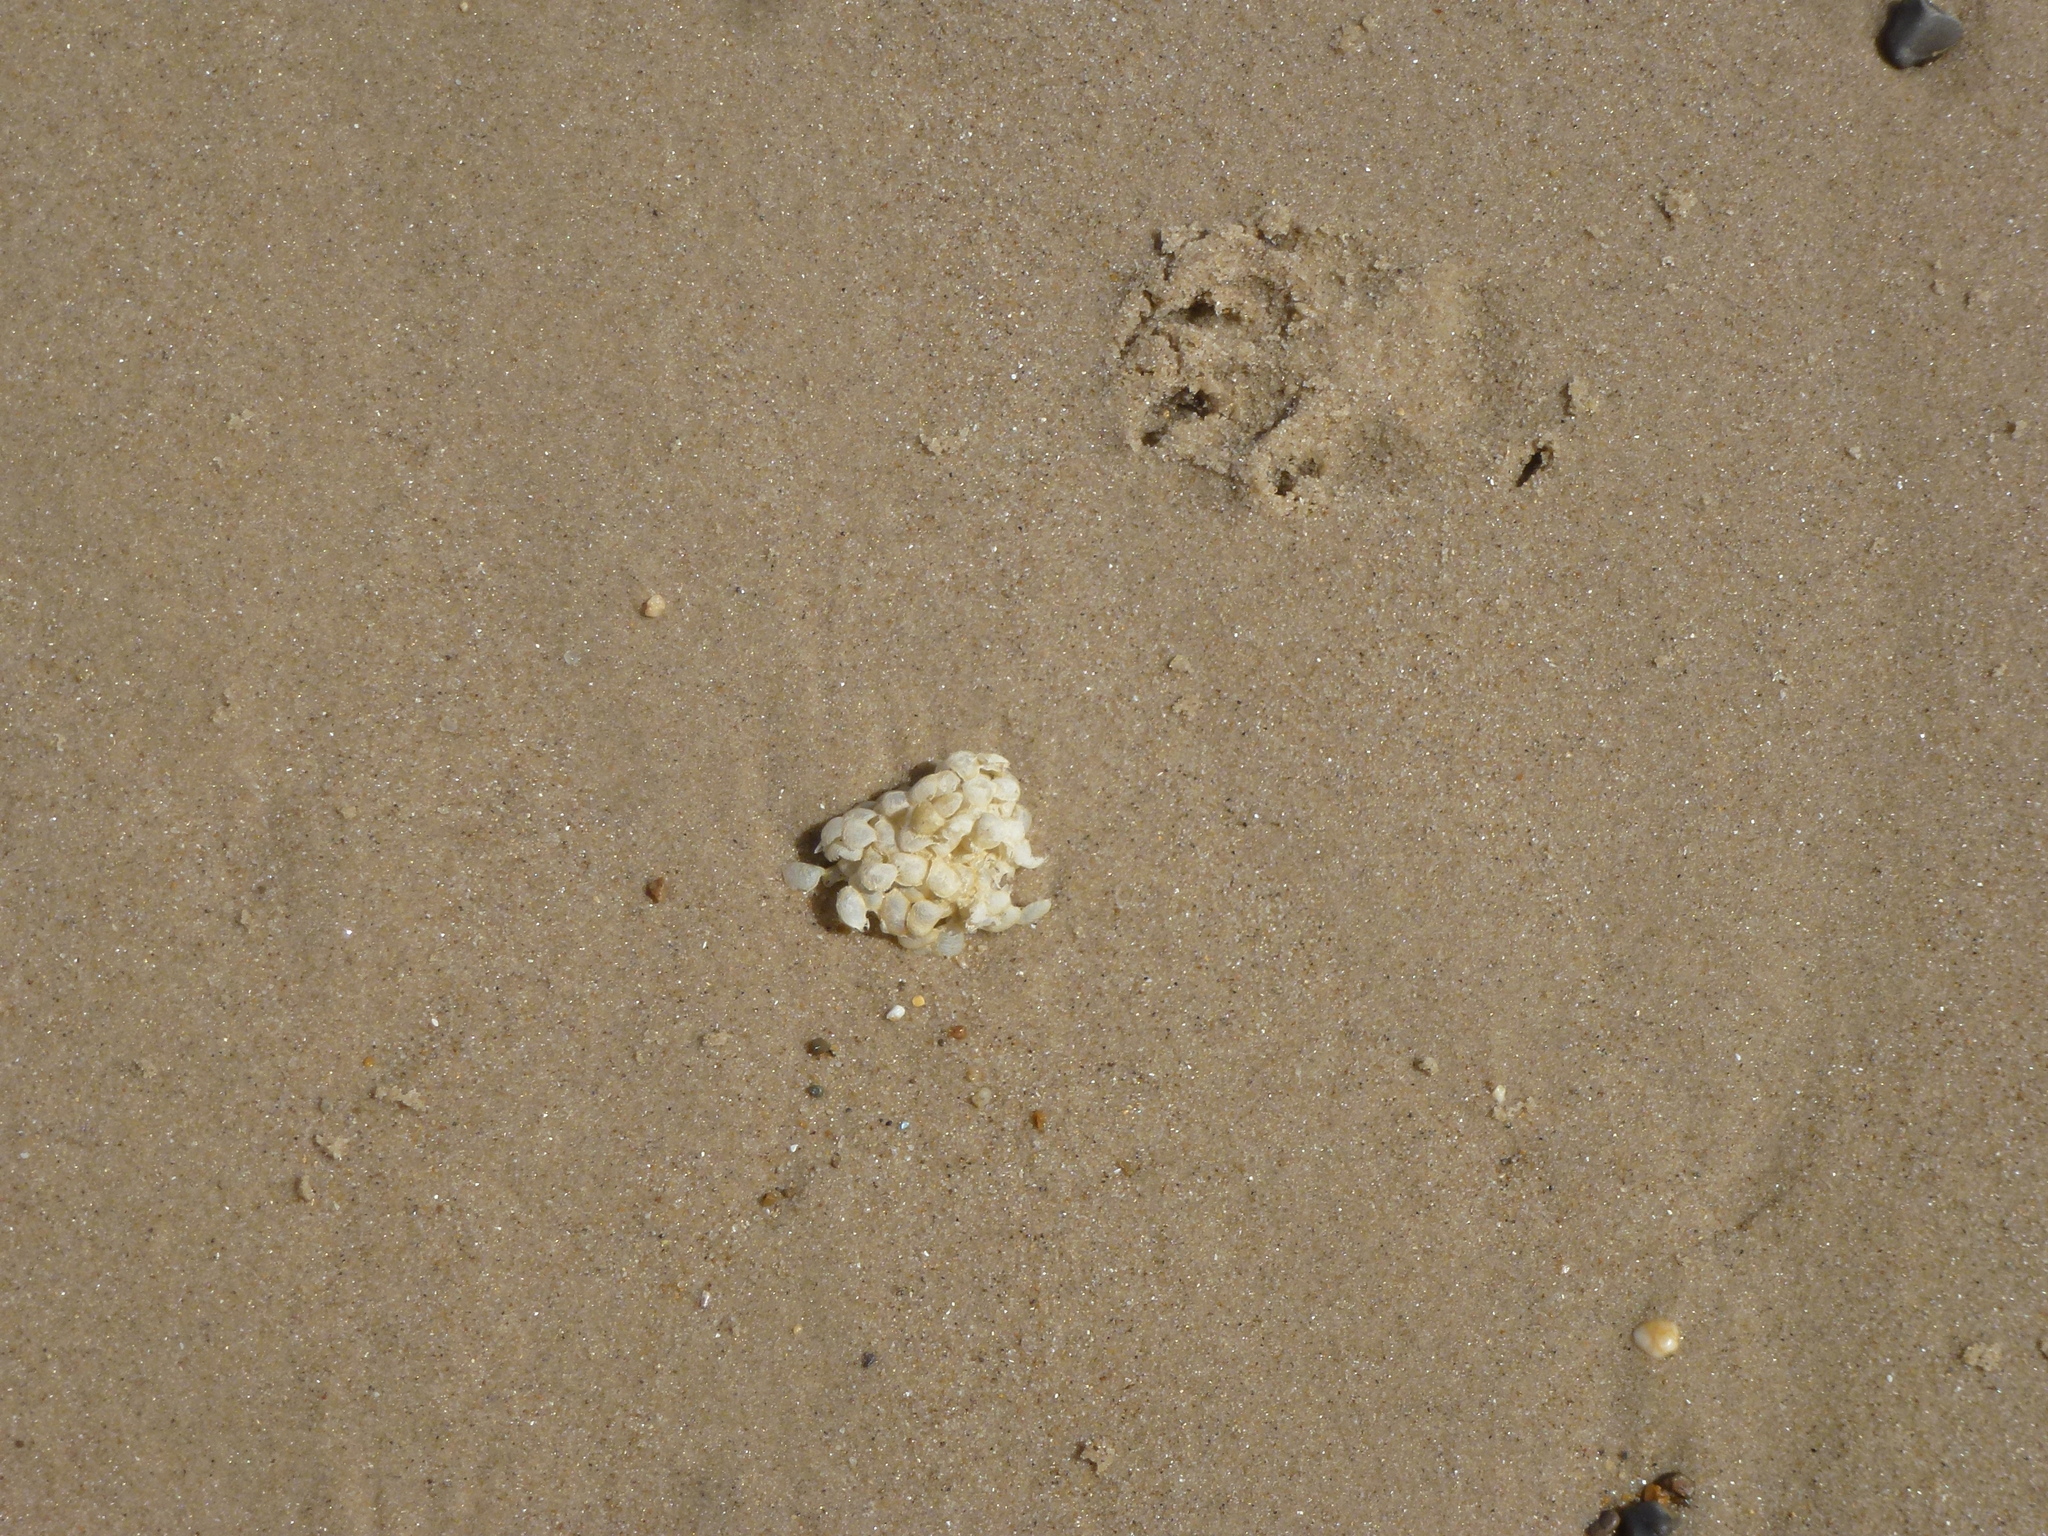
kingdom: Animalia
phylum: Mollusca
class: Gastropoda
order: Neogastropoda
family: Buccinidae
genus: Buccinum
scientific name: Buccinum undatum
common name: Common whelk
